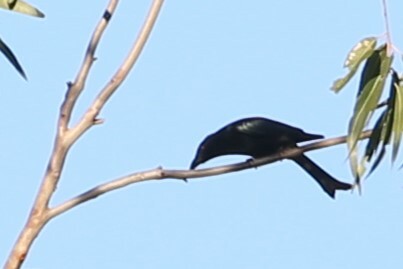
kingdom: Animalia
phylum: Chordata
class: Aves
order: Passeriformes
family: Dicruridae
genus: Dicrurus
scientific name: Dicrurus bracteatus
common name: Spangled drongo
